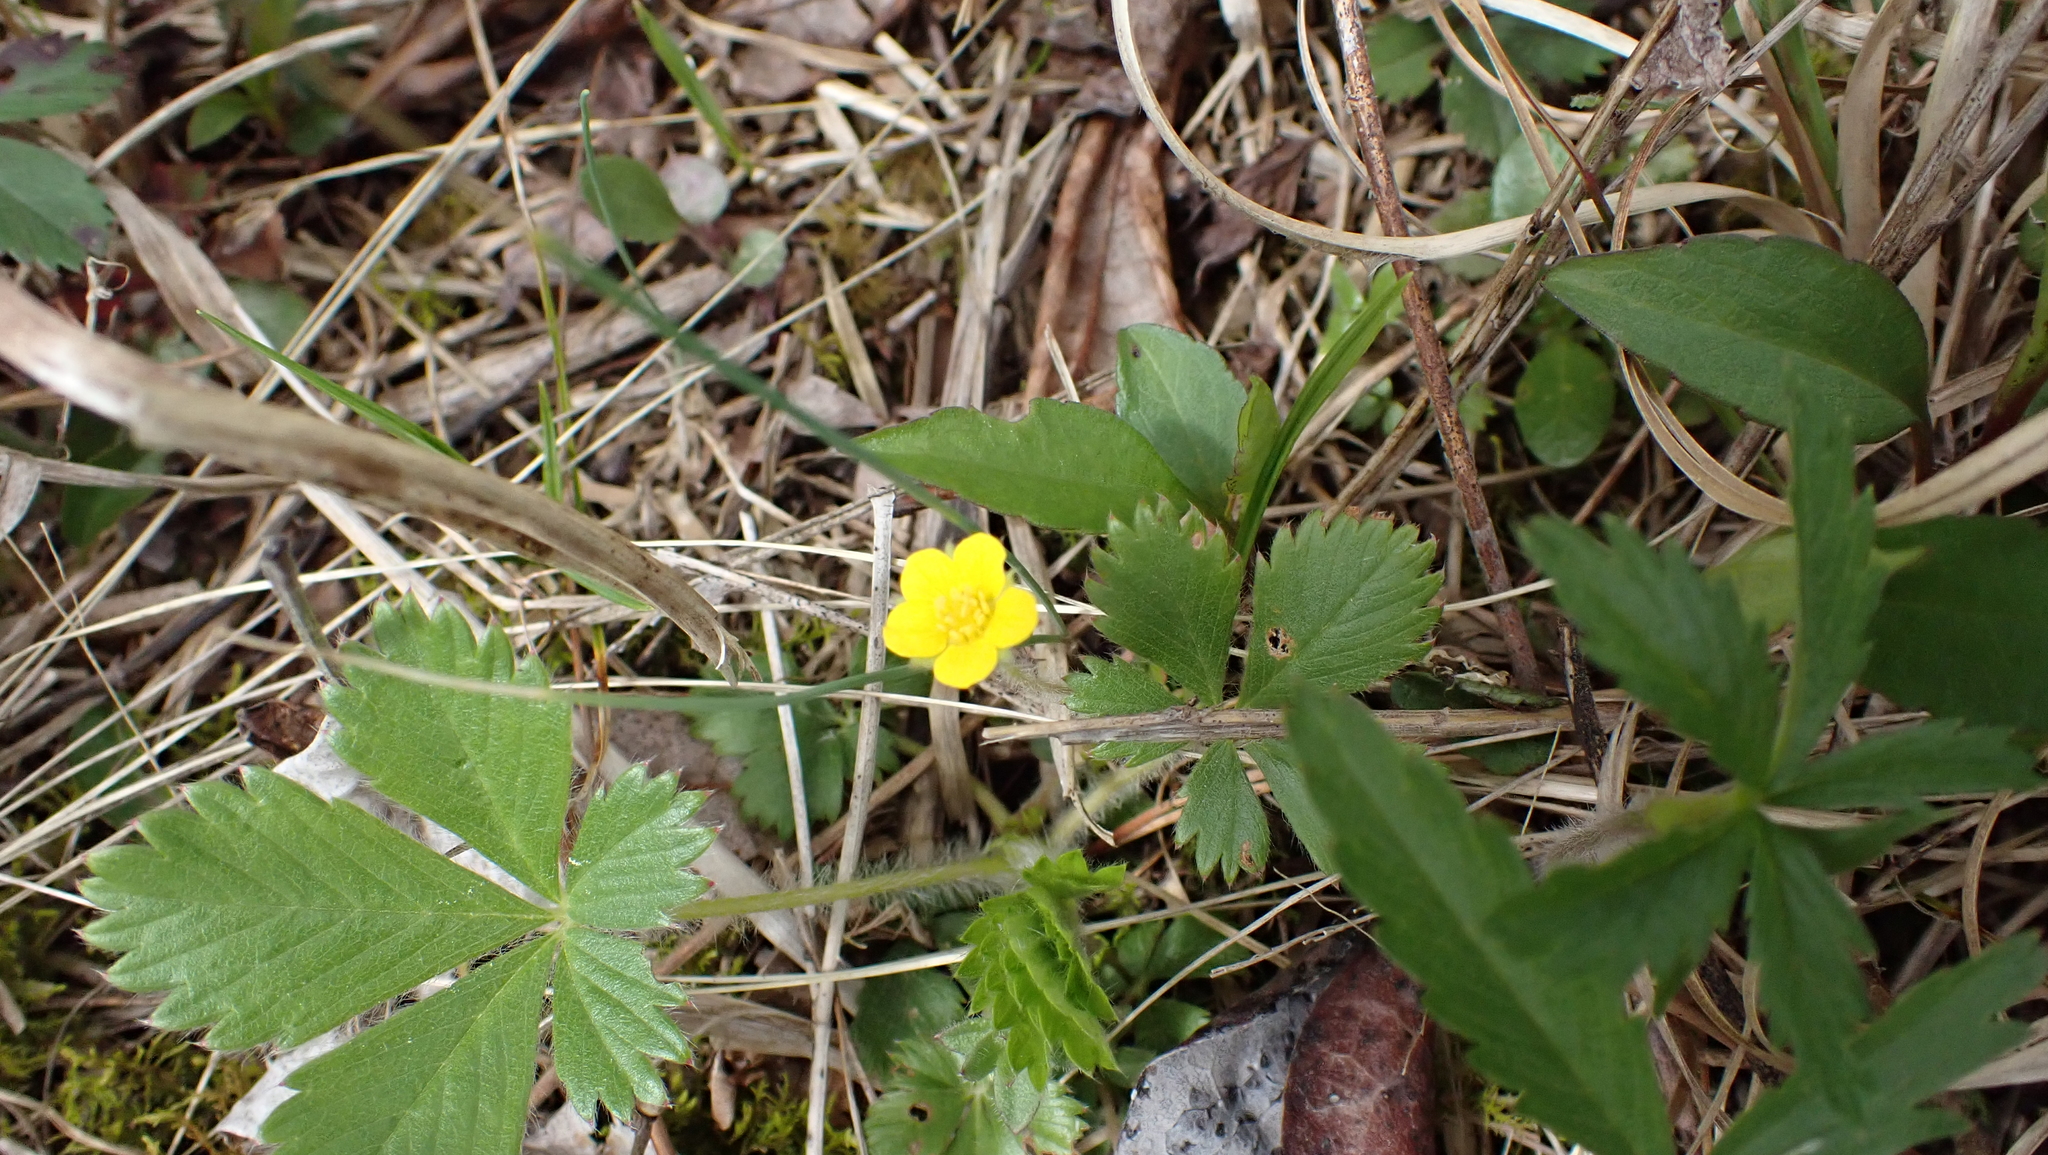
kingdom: Plantae
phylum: Tracheophyta
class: Magnoliopsida
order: Rosales
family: Rosaceae
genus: Potentilla
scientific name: Potentilla canadensis
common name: Canada cinquefoil
